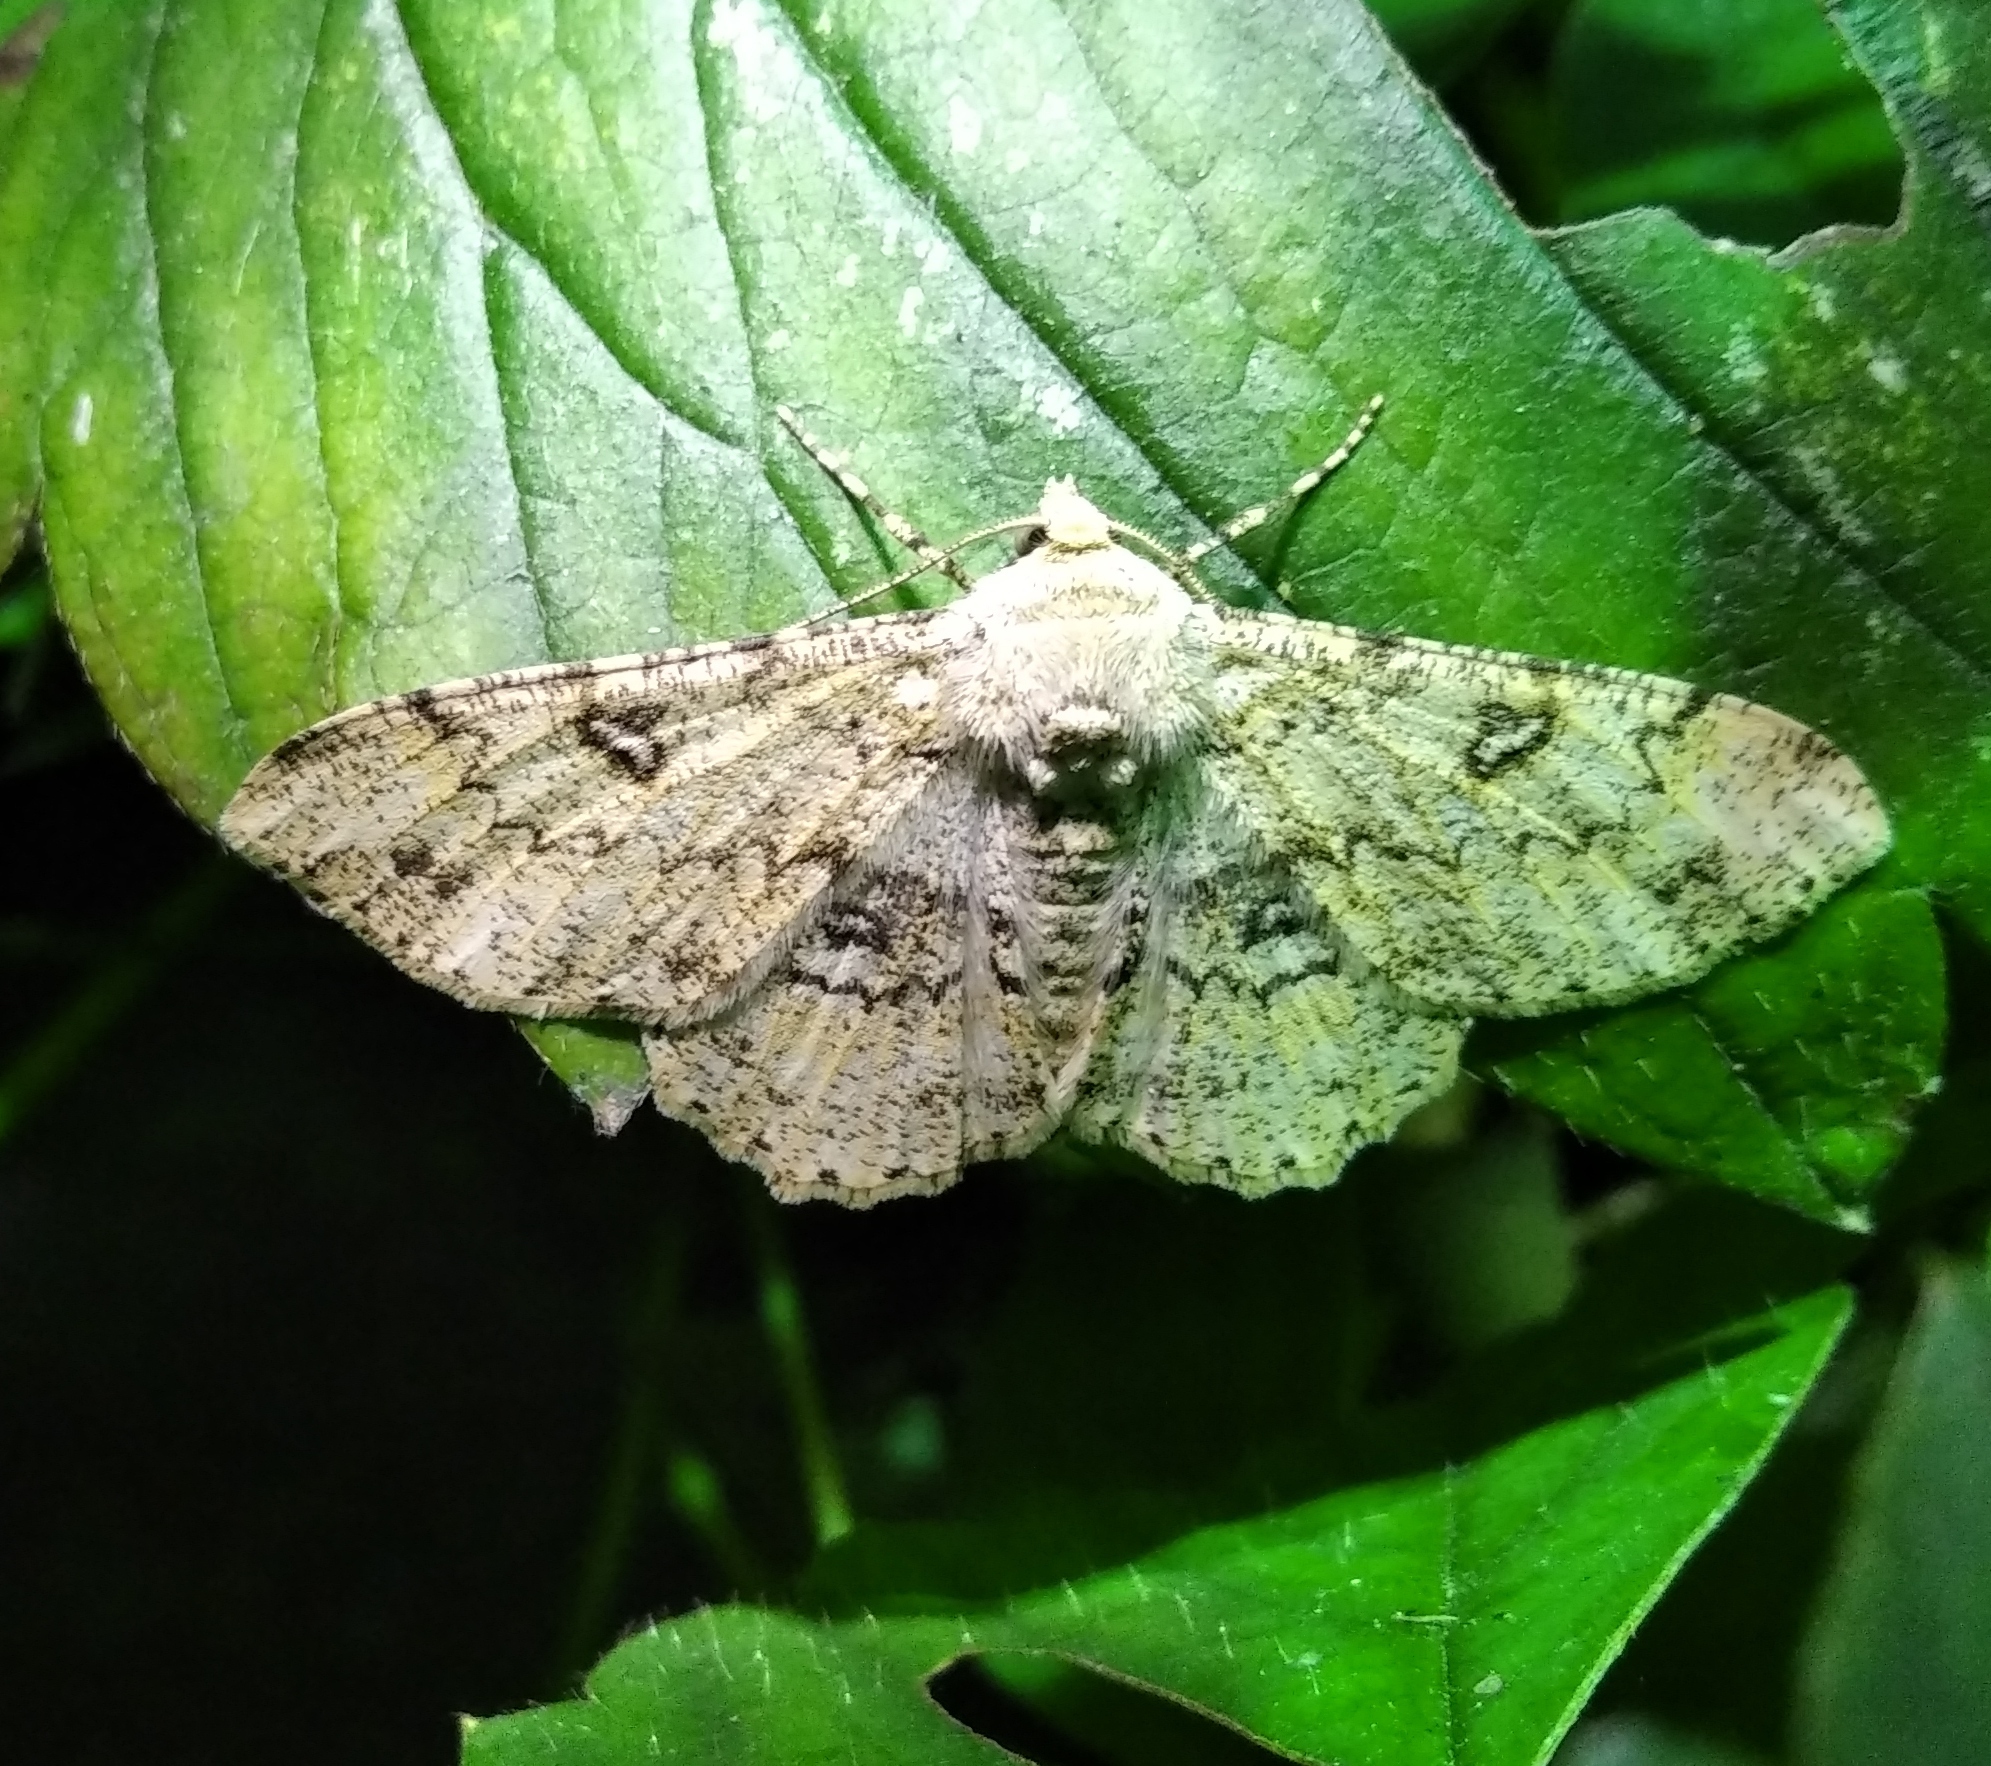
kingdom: Animalia
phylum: Arthropoda
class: Insecta
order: Lepidoptera
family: Geometridae
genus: Ascotis
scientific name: Ascotis selenaria
